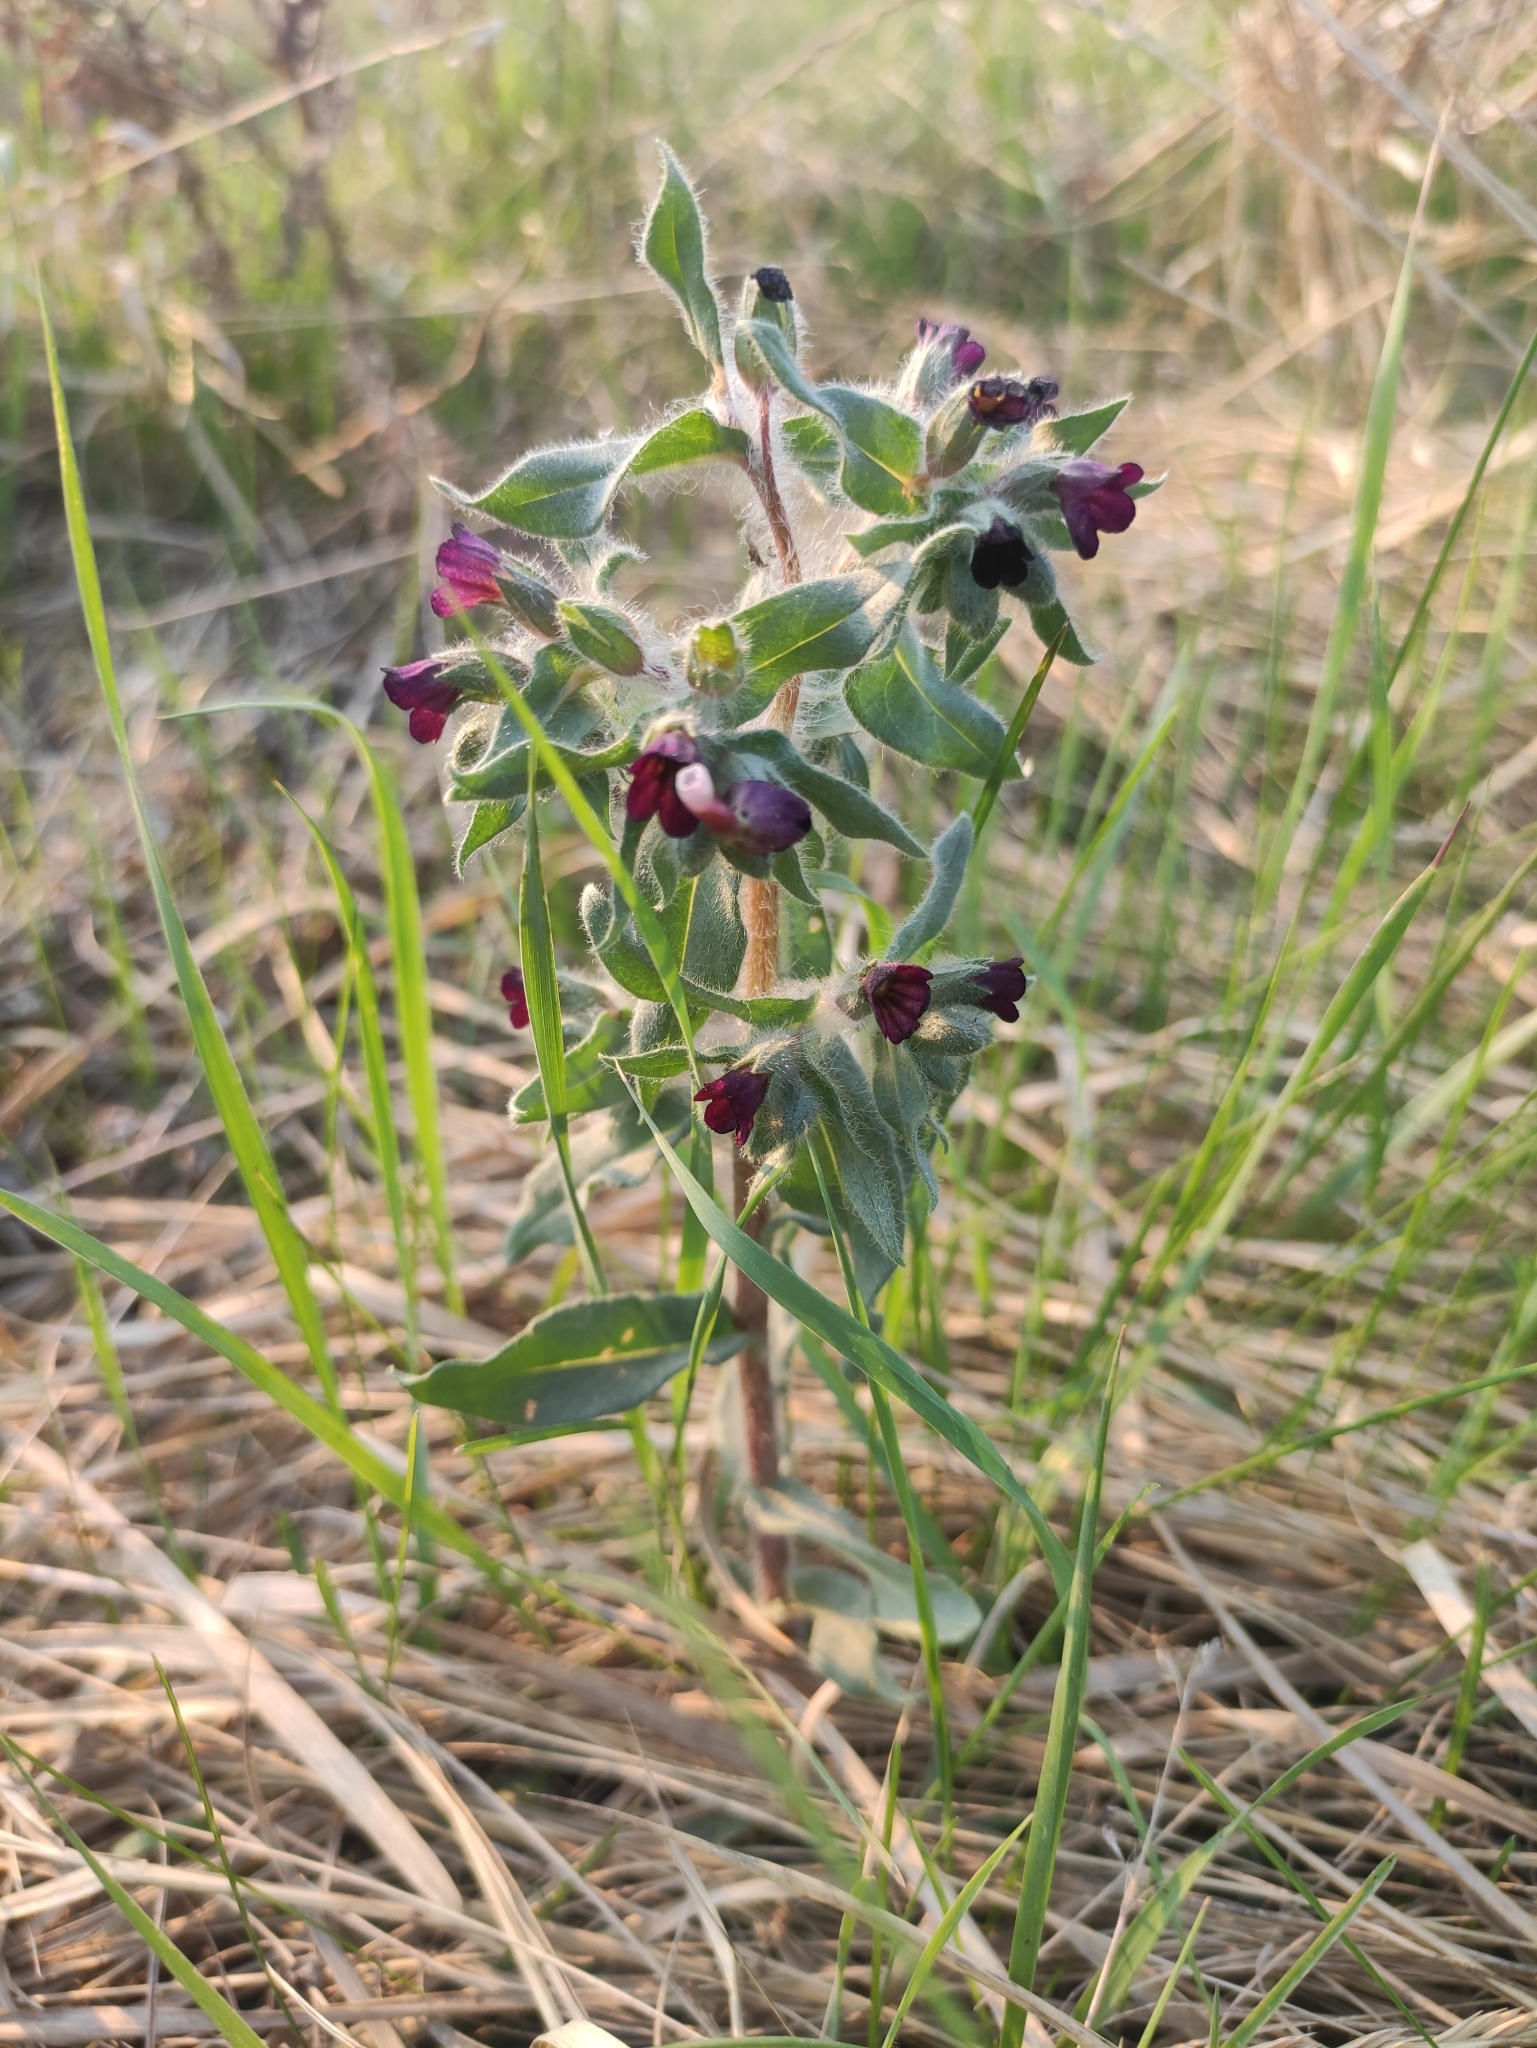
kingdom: Plantae
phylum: Tracheophyta
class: Magnoliopsida
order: Boraginales
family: Boraginaceae
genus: Nonea
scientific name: Nonea pulla
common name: Brown nonea
